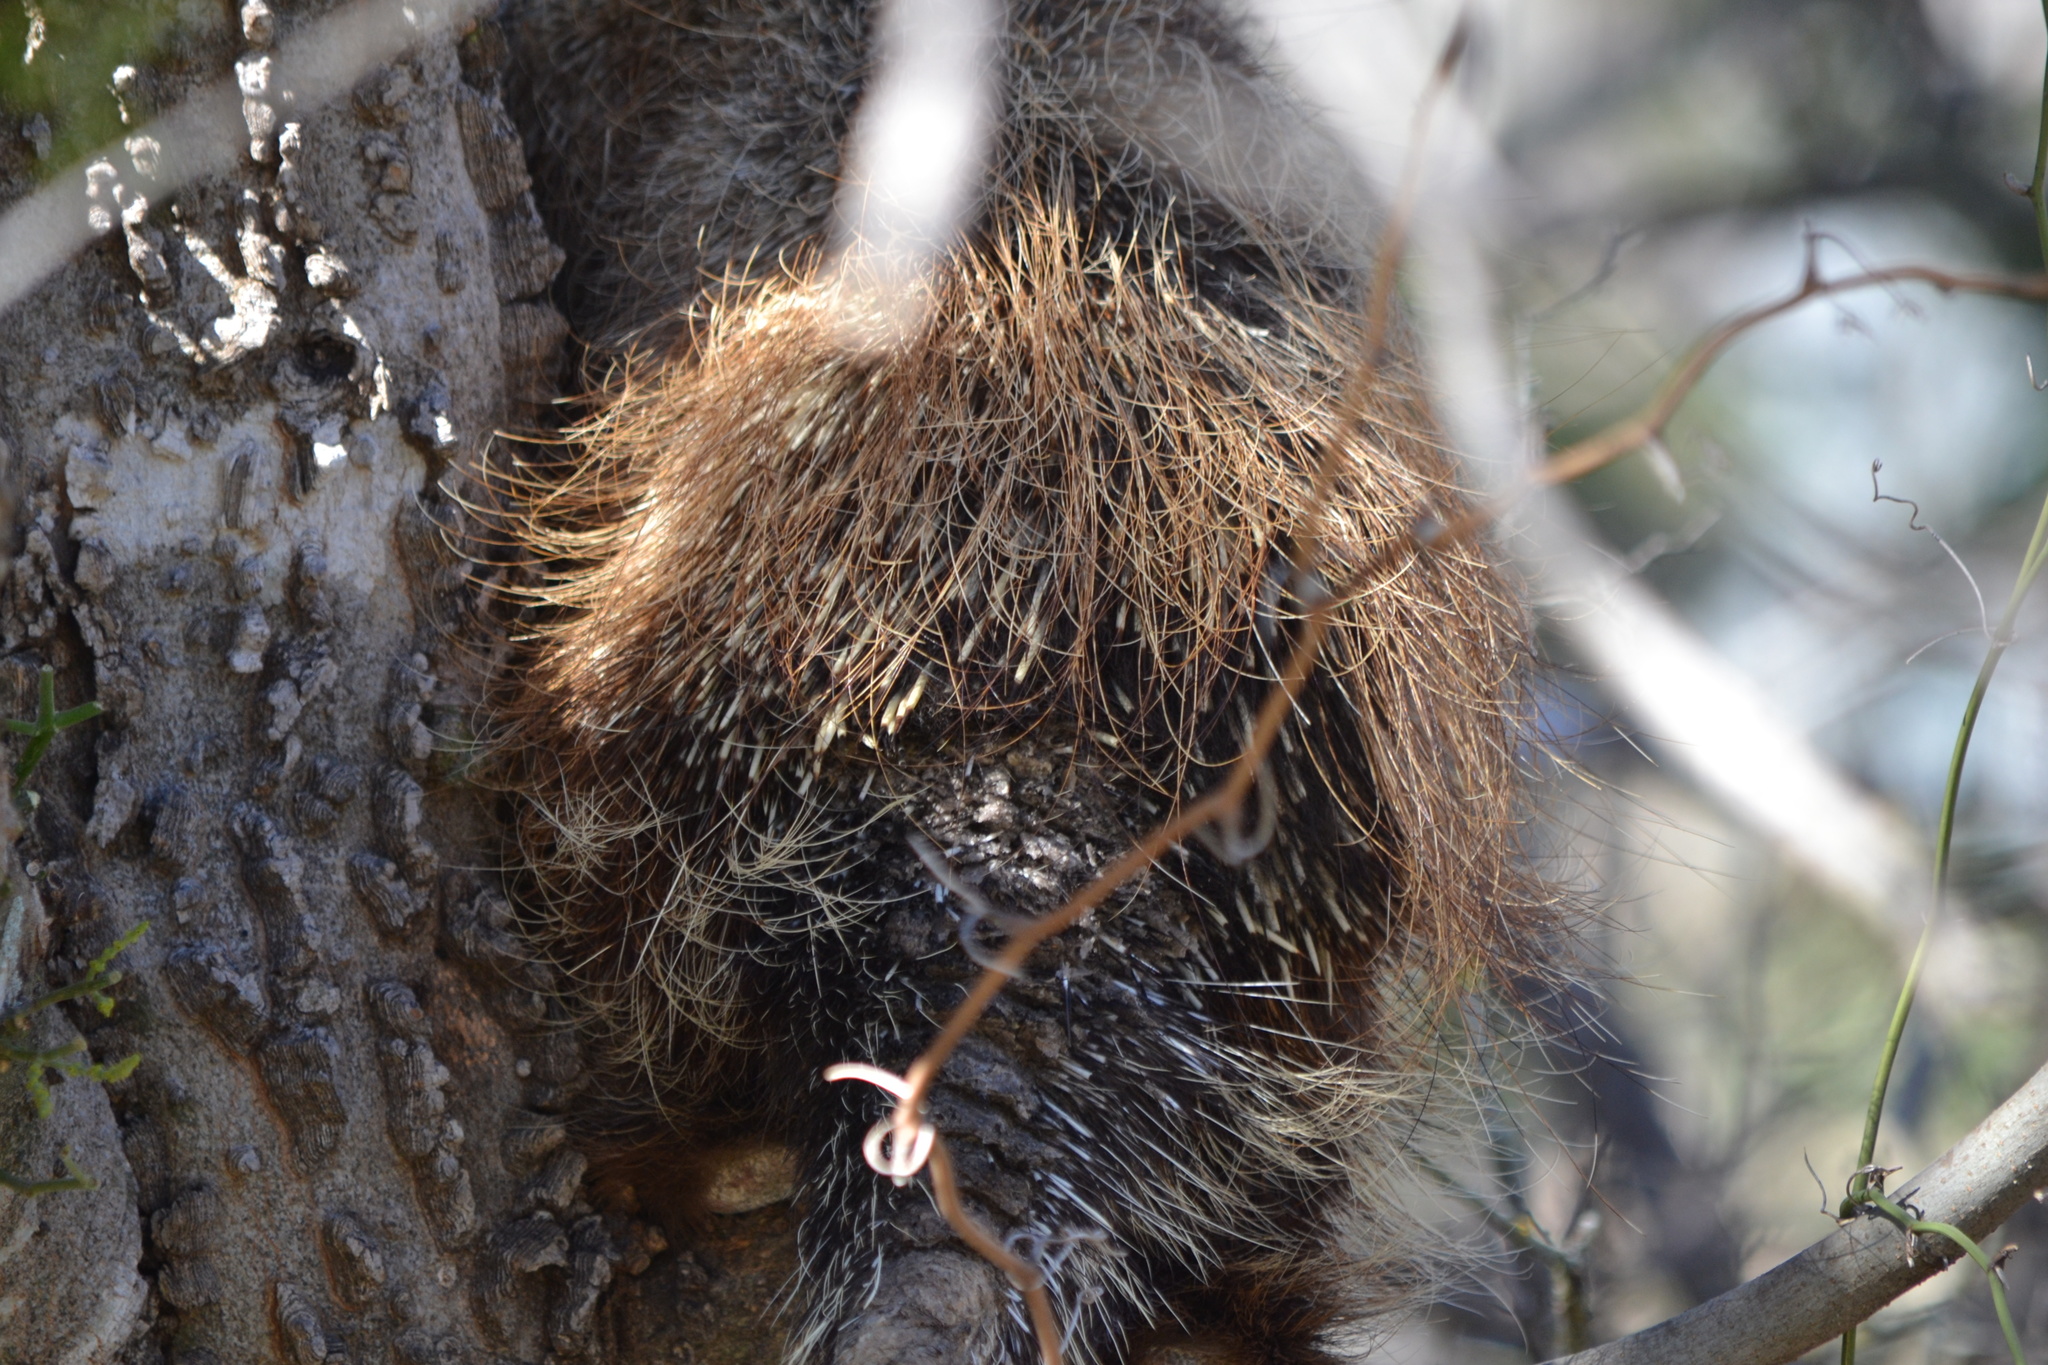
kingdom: Animalia
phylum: Chordata
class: Mammalia
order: Rodentia
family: Erethizontidae
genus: Erethizon
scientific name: Erethizon dorsatus
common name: North american porcupine
